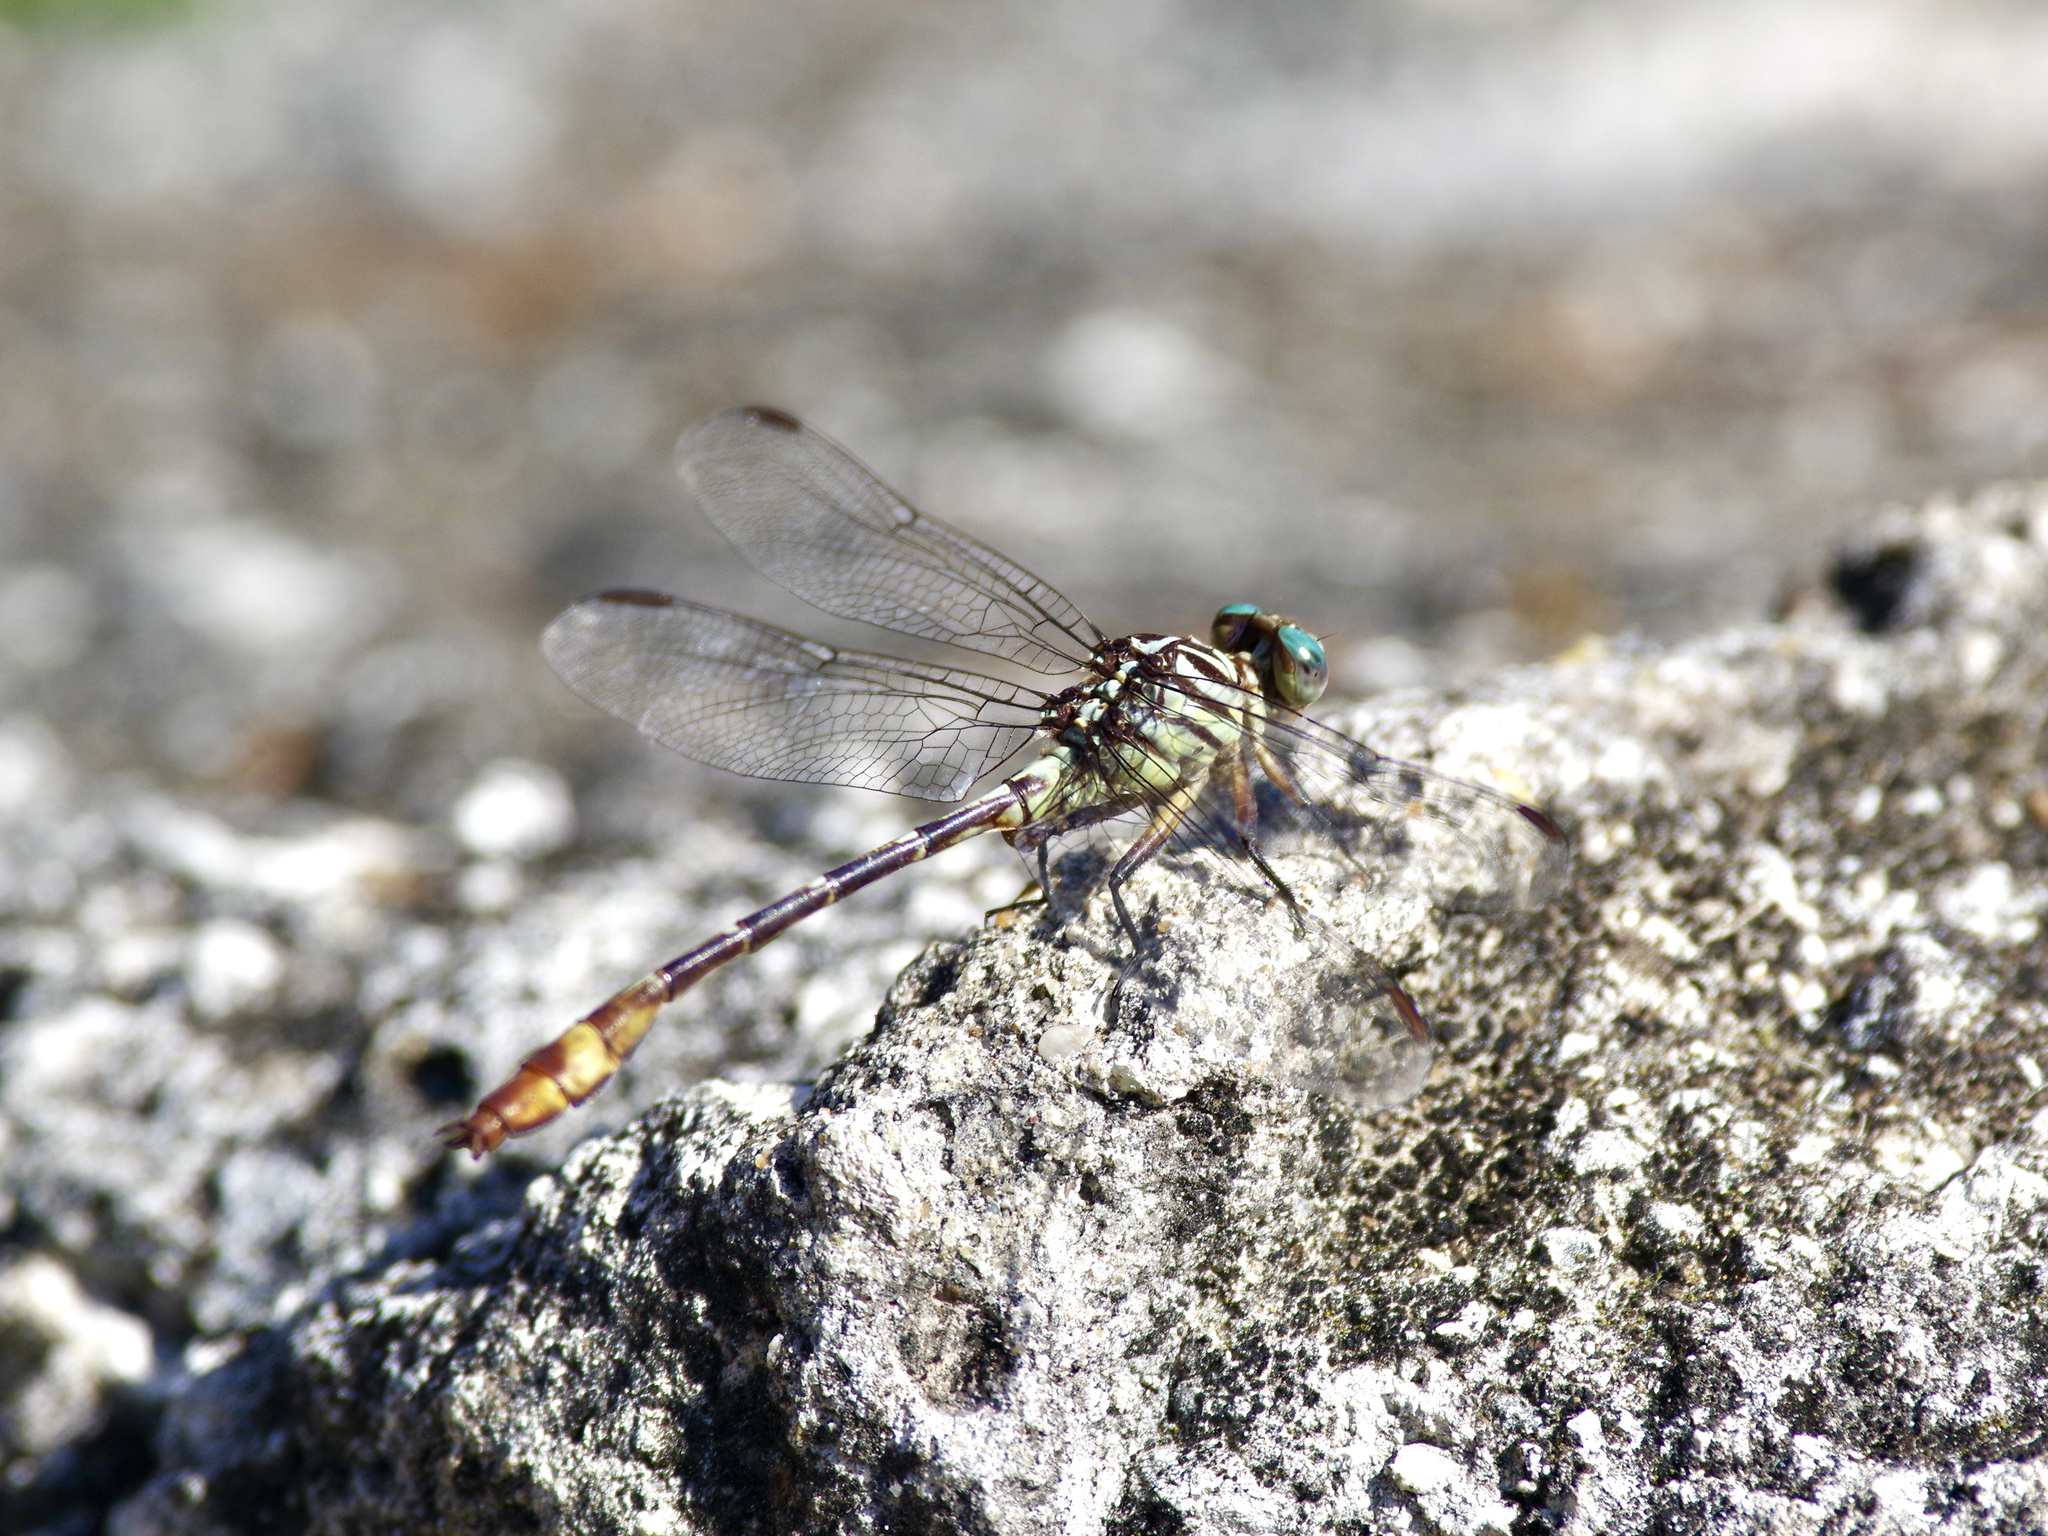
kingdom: Animalia
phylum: Arthropoda
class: Insecta
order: Odonata
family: Gomphidae
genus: Stylurus
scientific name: Stylurus plagiatus
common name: Russet-tipped clubtail
